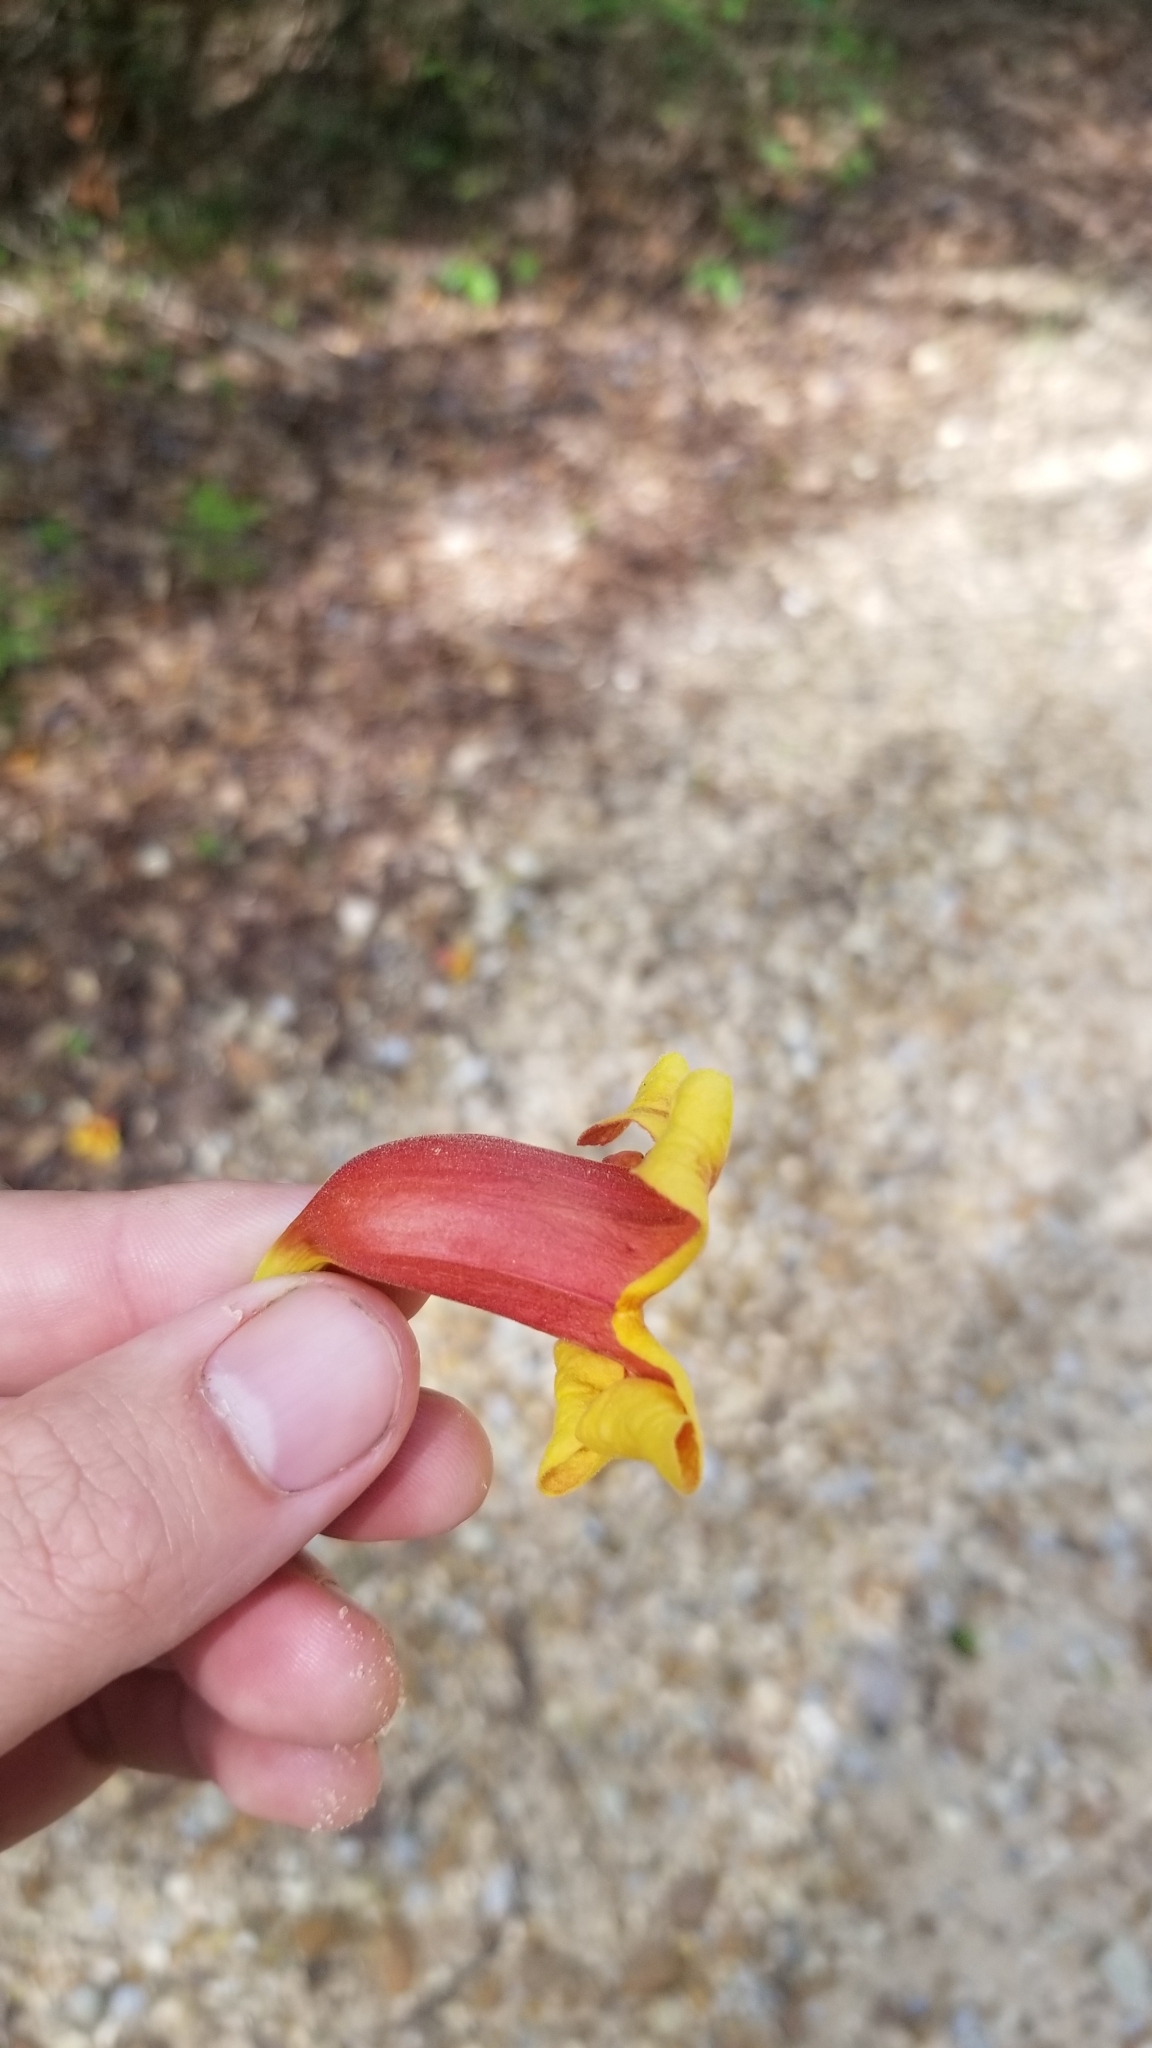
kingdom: Plantae
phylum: Tracheophyta
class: Magnoliopsida
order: Lamiales
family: Bignoniaceae
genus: Bignonia
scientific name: Bignonia capreolata
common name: Crossvine
